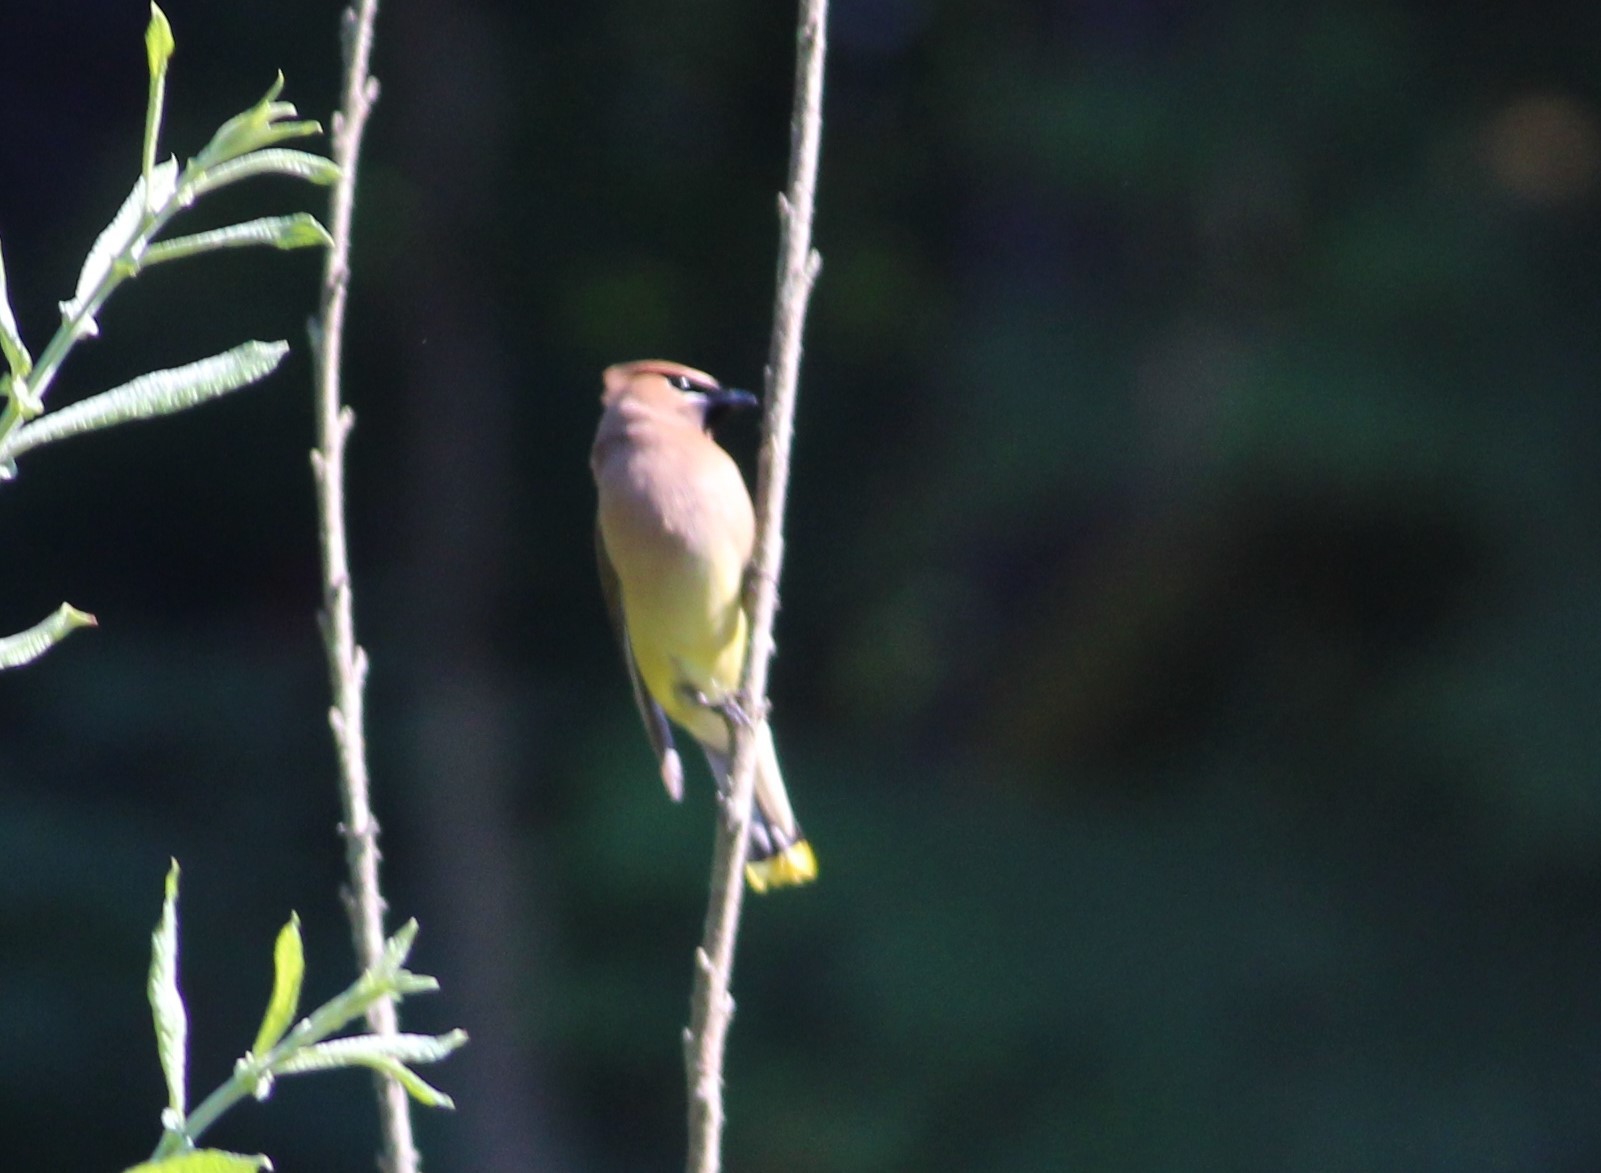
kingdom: Animalia
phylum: Chordata
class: Aves
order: Passeriformes
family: Bombycillidae
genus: Bombycilla
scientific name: Bombycilla cedrorum
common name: Cedar waxwing
